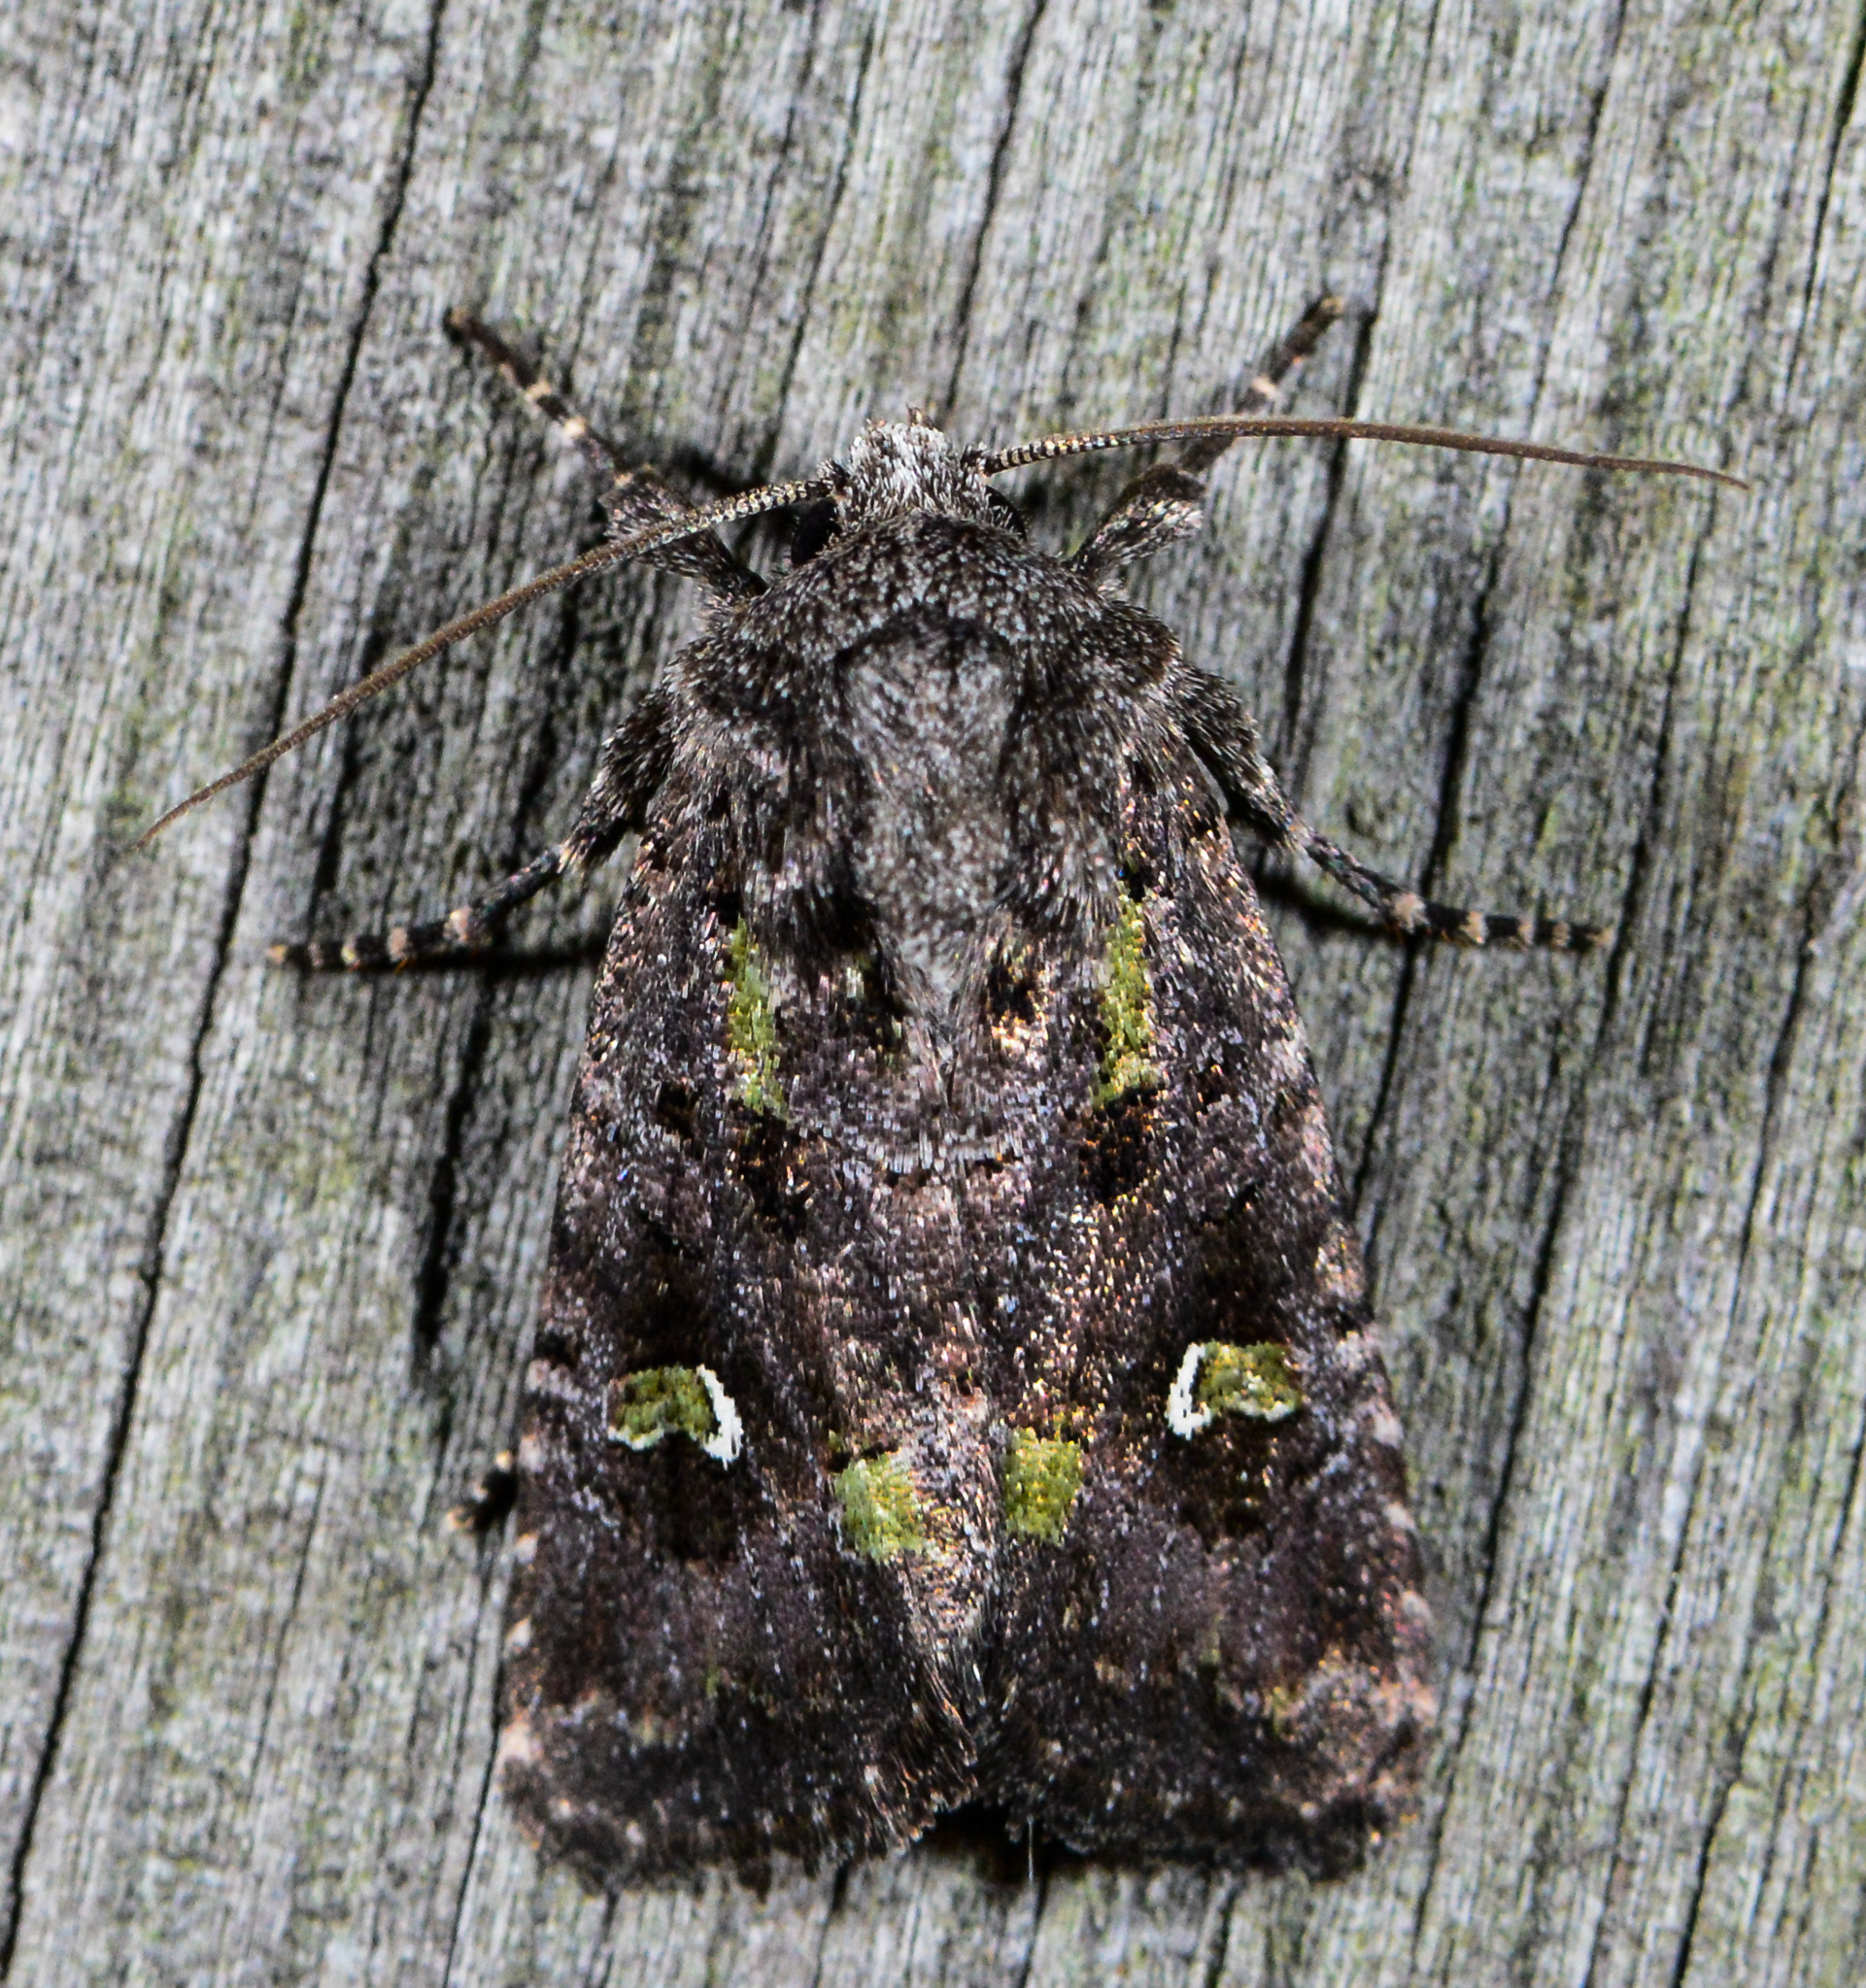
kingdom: Animalia
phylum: Arthropoda
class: Insecta
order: Lepidoptera
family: Noctuidae
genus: Lacinipolia
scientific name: Lacinipolia renigera
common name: Kidney-spotted minor
